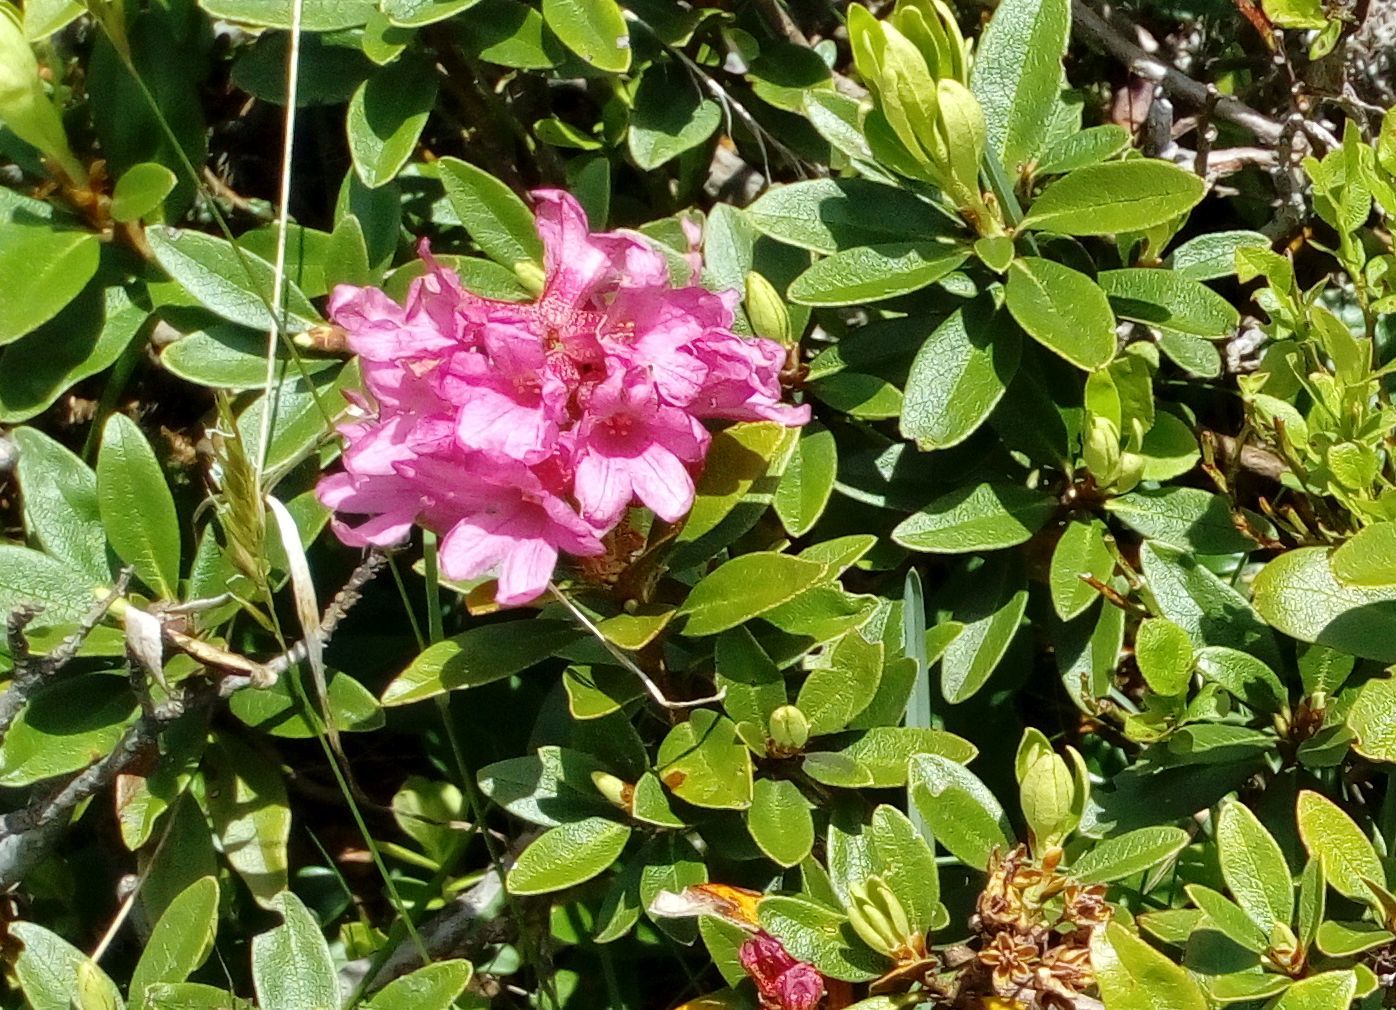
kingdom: Plantae
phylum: Tracheophyta
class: Magnoliopsida
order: Ericales
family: Ericaceae
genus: Rhododendron
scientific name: Rhododendron ferrugineum
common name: Alpenrose
